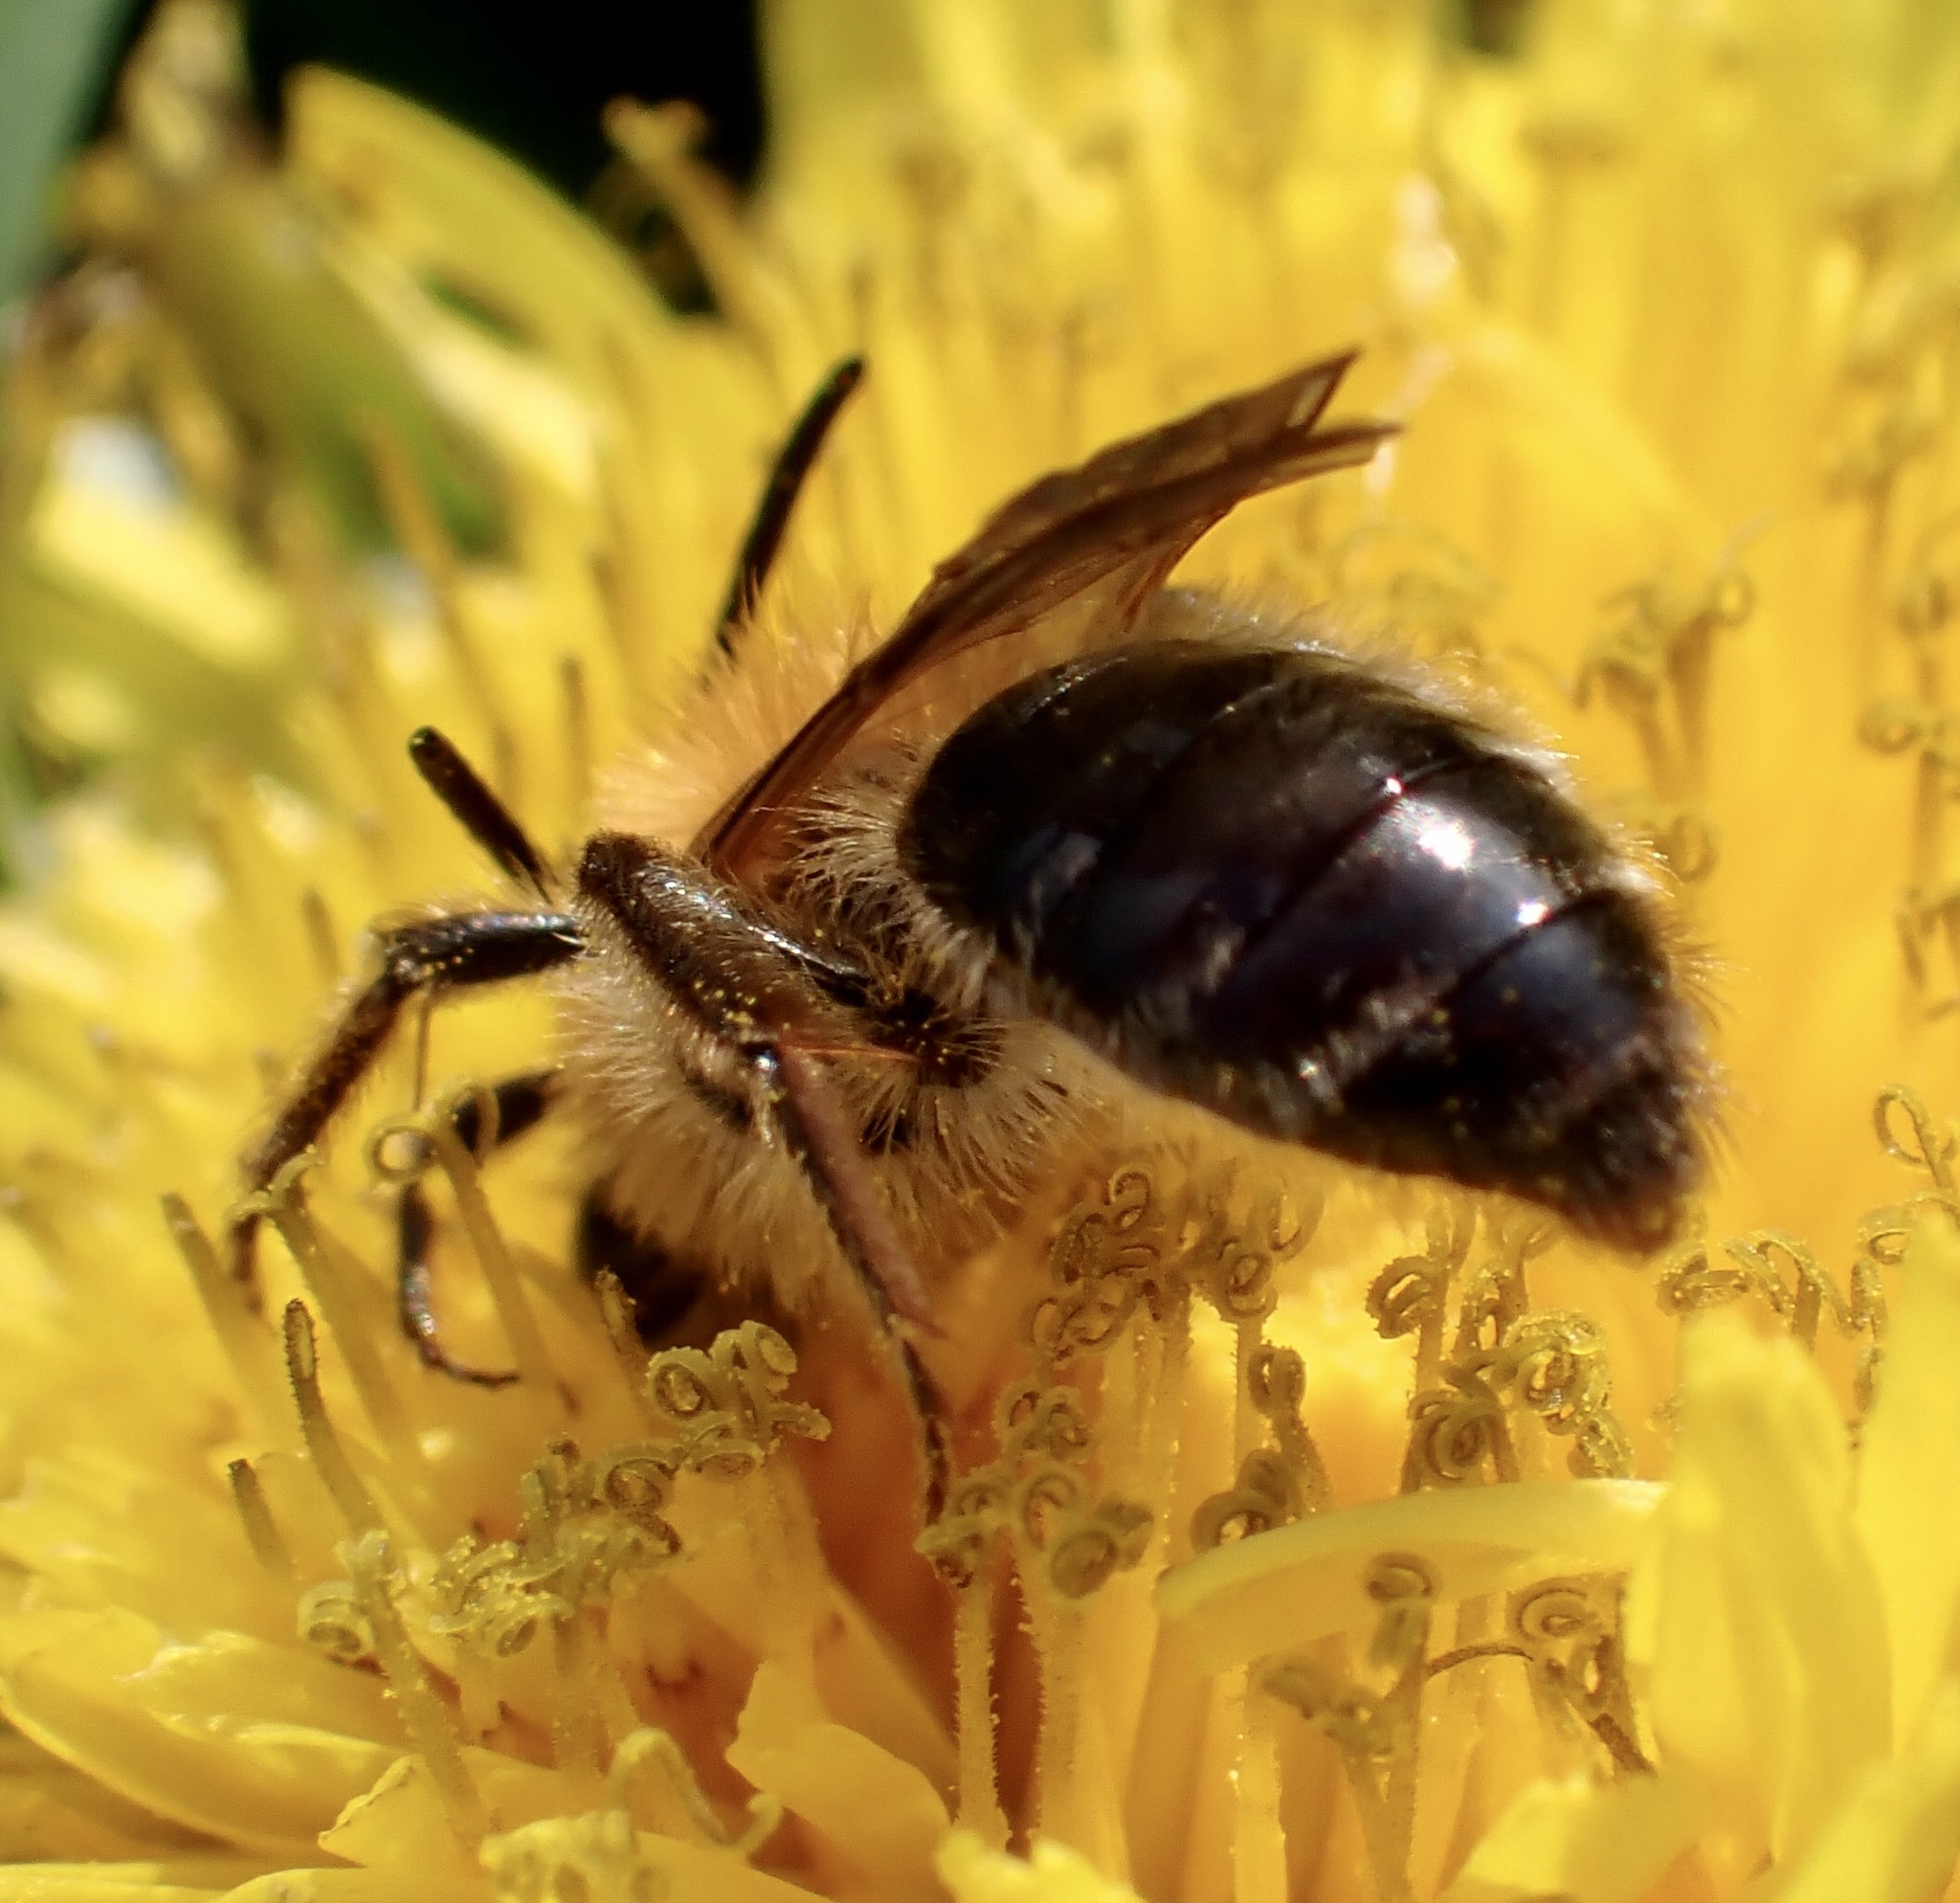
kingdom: Animalia
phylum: Arthropoda
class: Insecta
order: Hymenoptera
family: Andrenidae
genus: Andrena
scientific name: Andrena nitida
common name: Grey-patched mining bee
